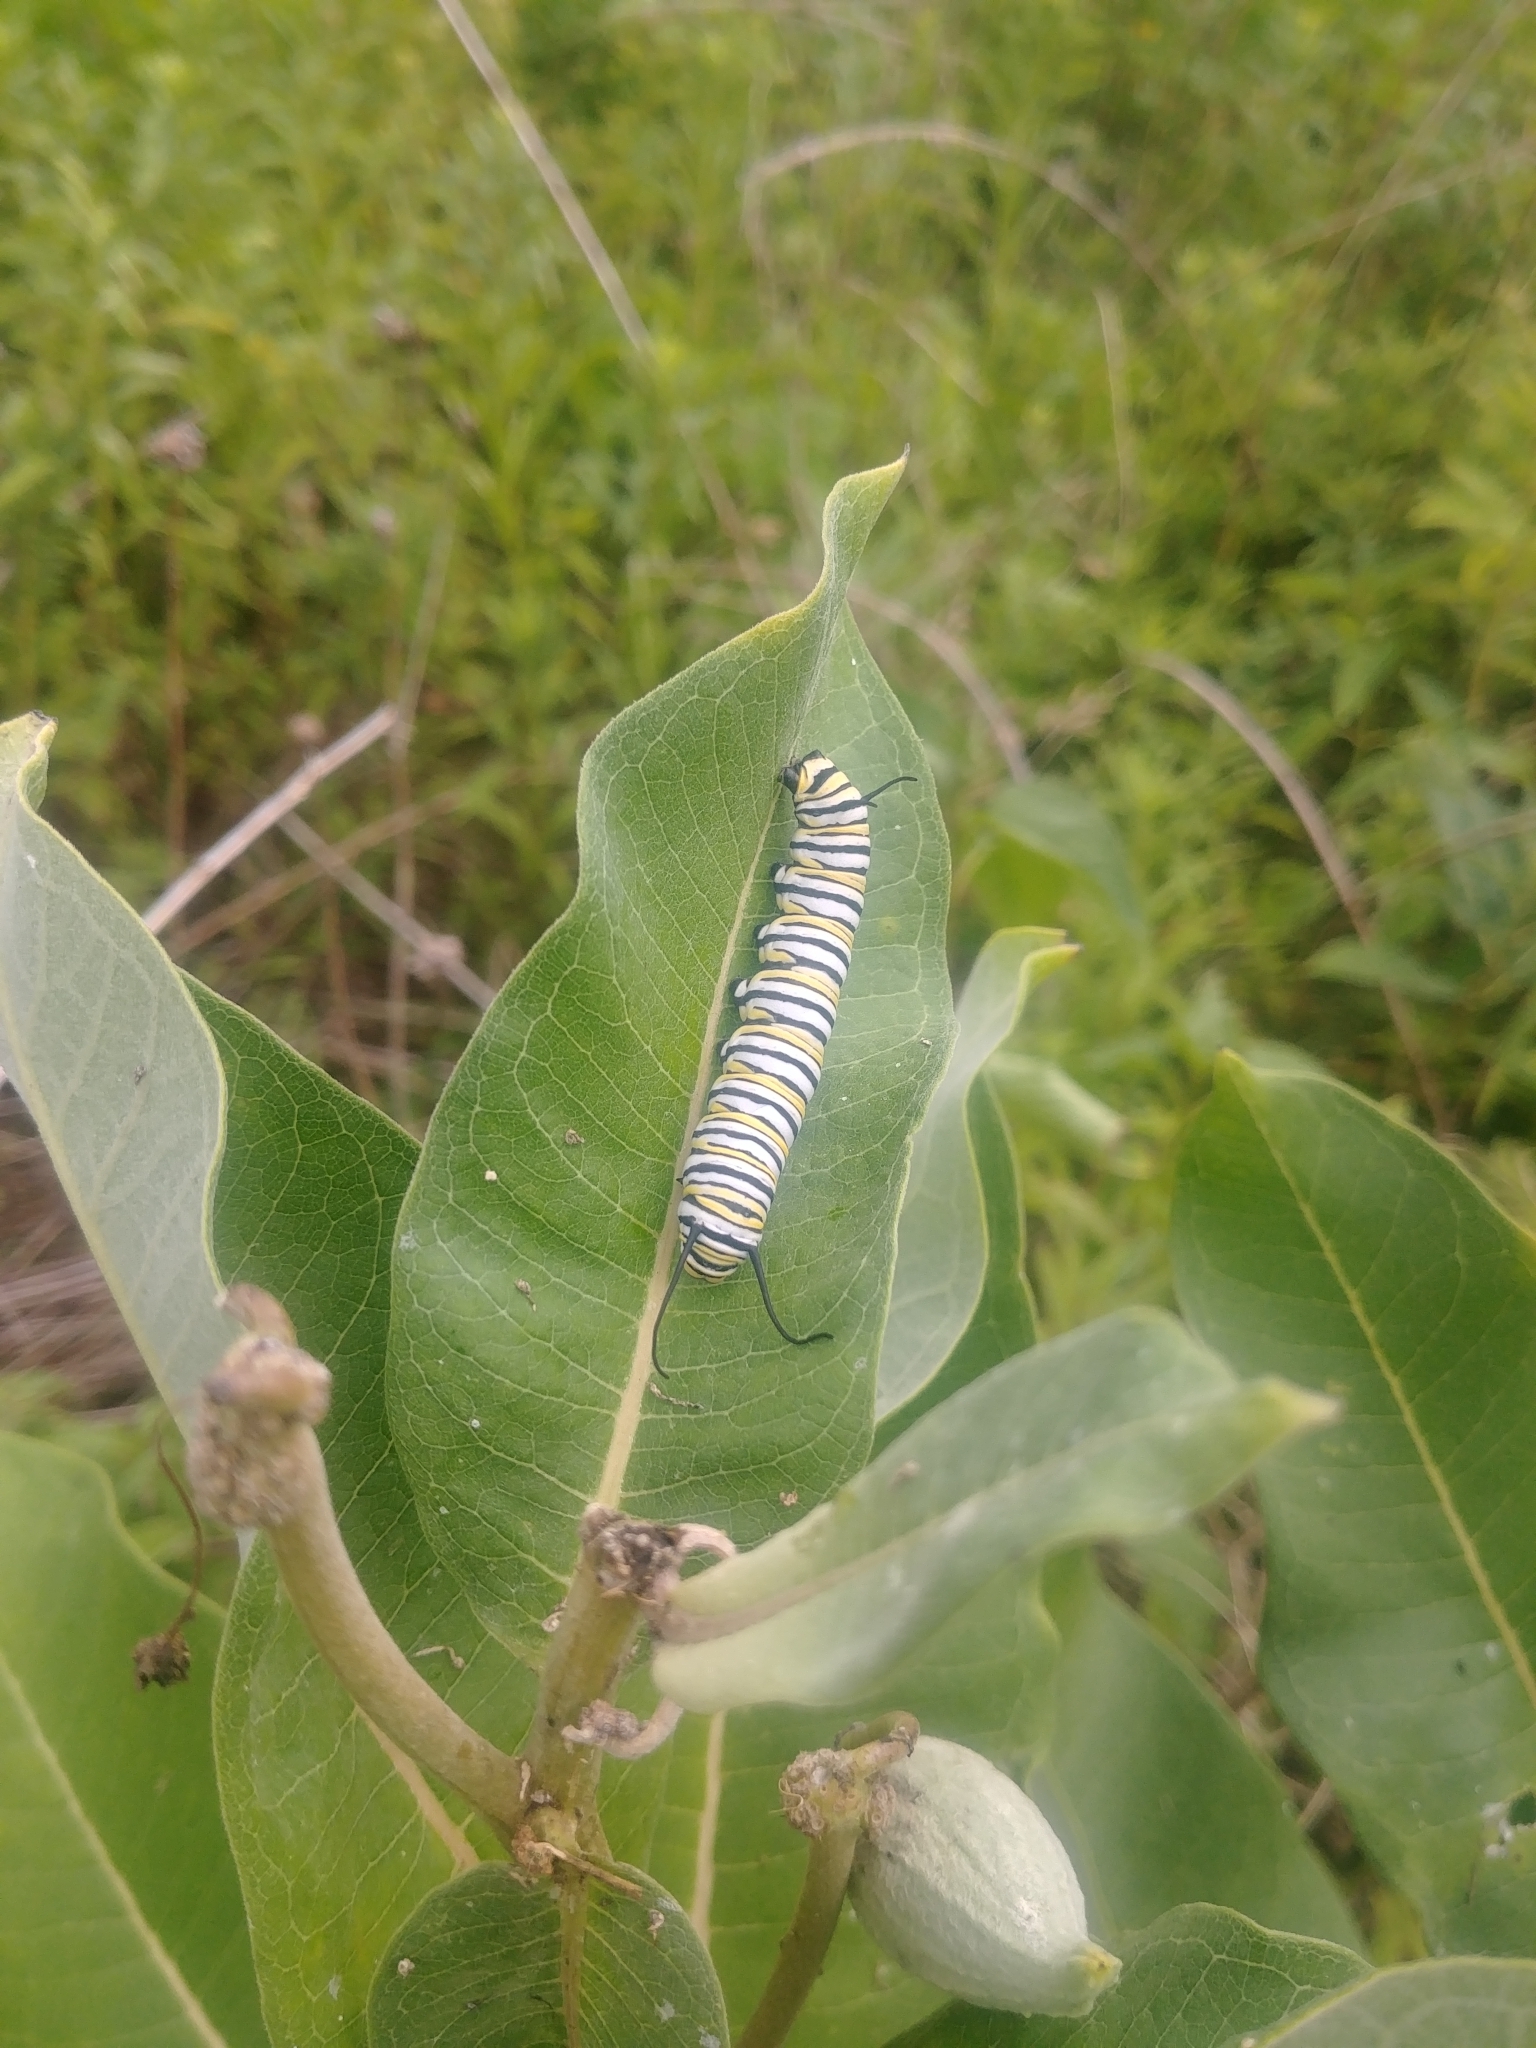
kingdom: Animalia
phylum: Arthropoda
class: Insecta
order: Lepidoptera
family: Nymphalidae
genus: Danaus
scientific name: Danaus plexippus
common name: Monarch
